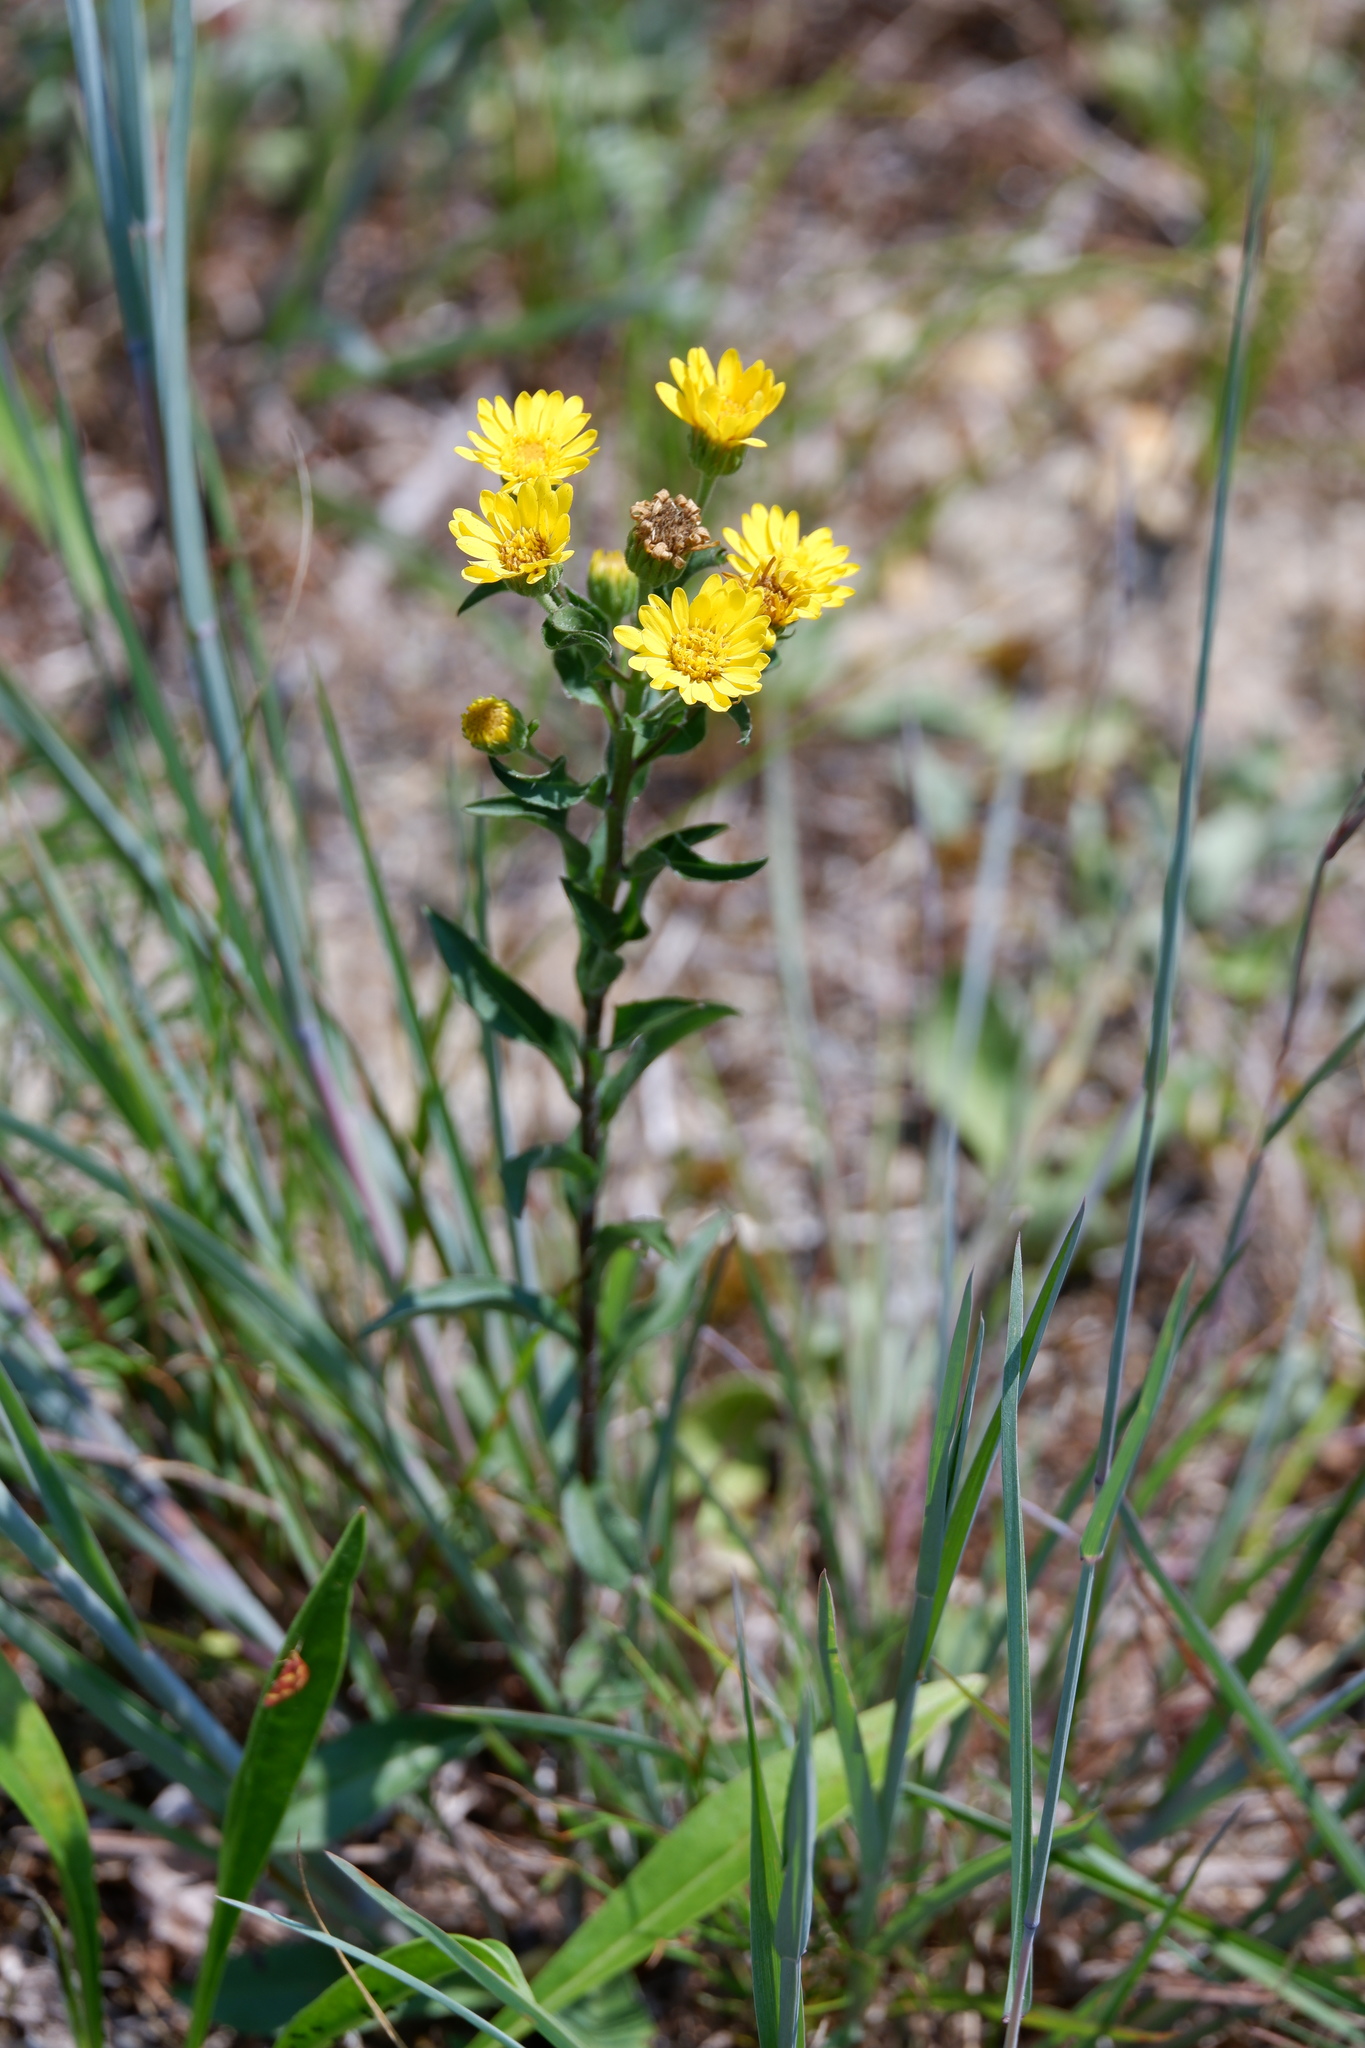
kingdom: Plantae
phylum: Tracheophyta
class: Magnoliopsida
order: Asterales
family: Asteraceae
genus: Chrysopsis
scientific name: Chrysopsis mariana
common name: Maryland golden-aster
